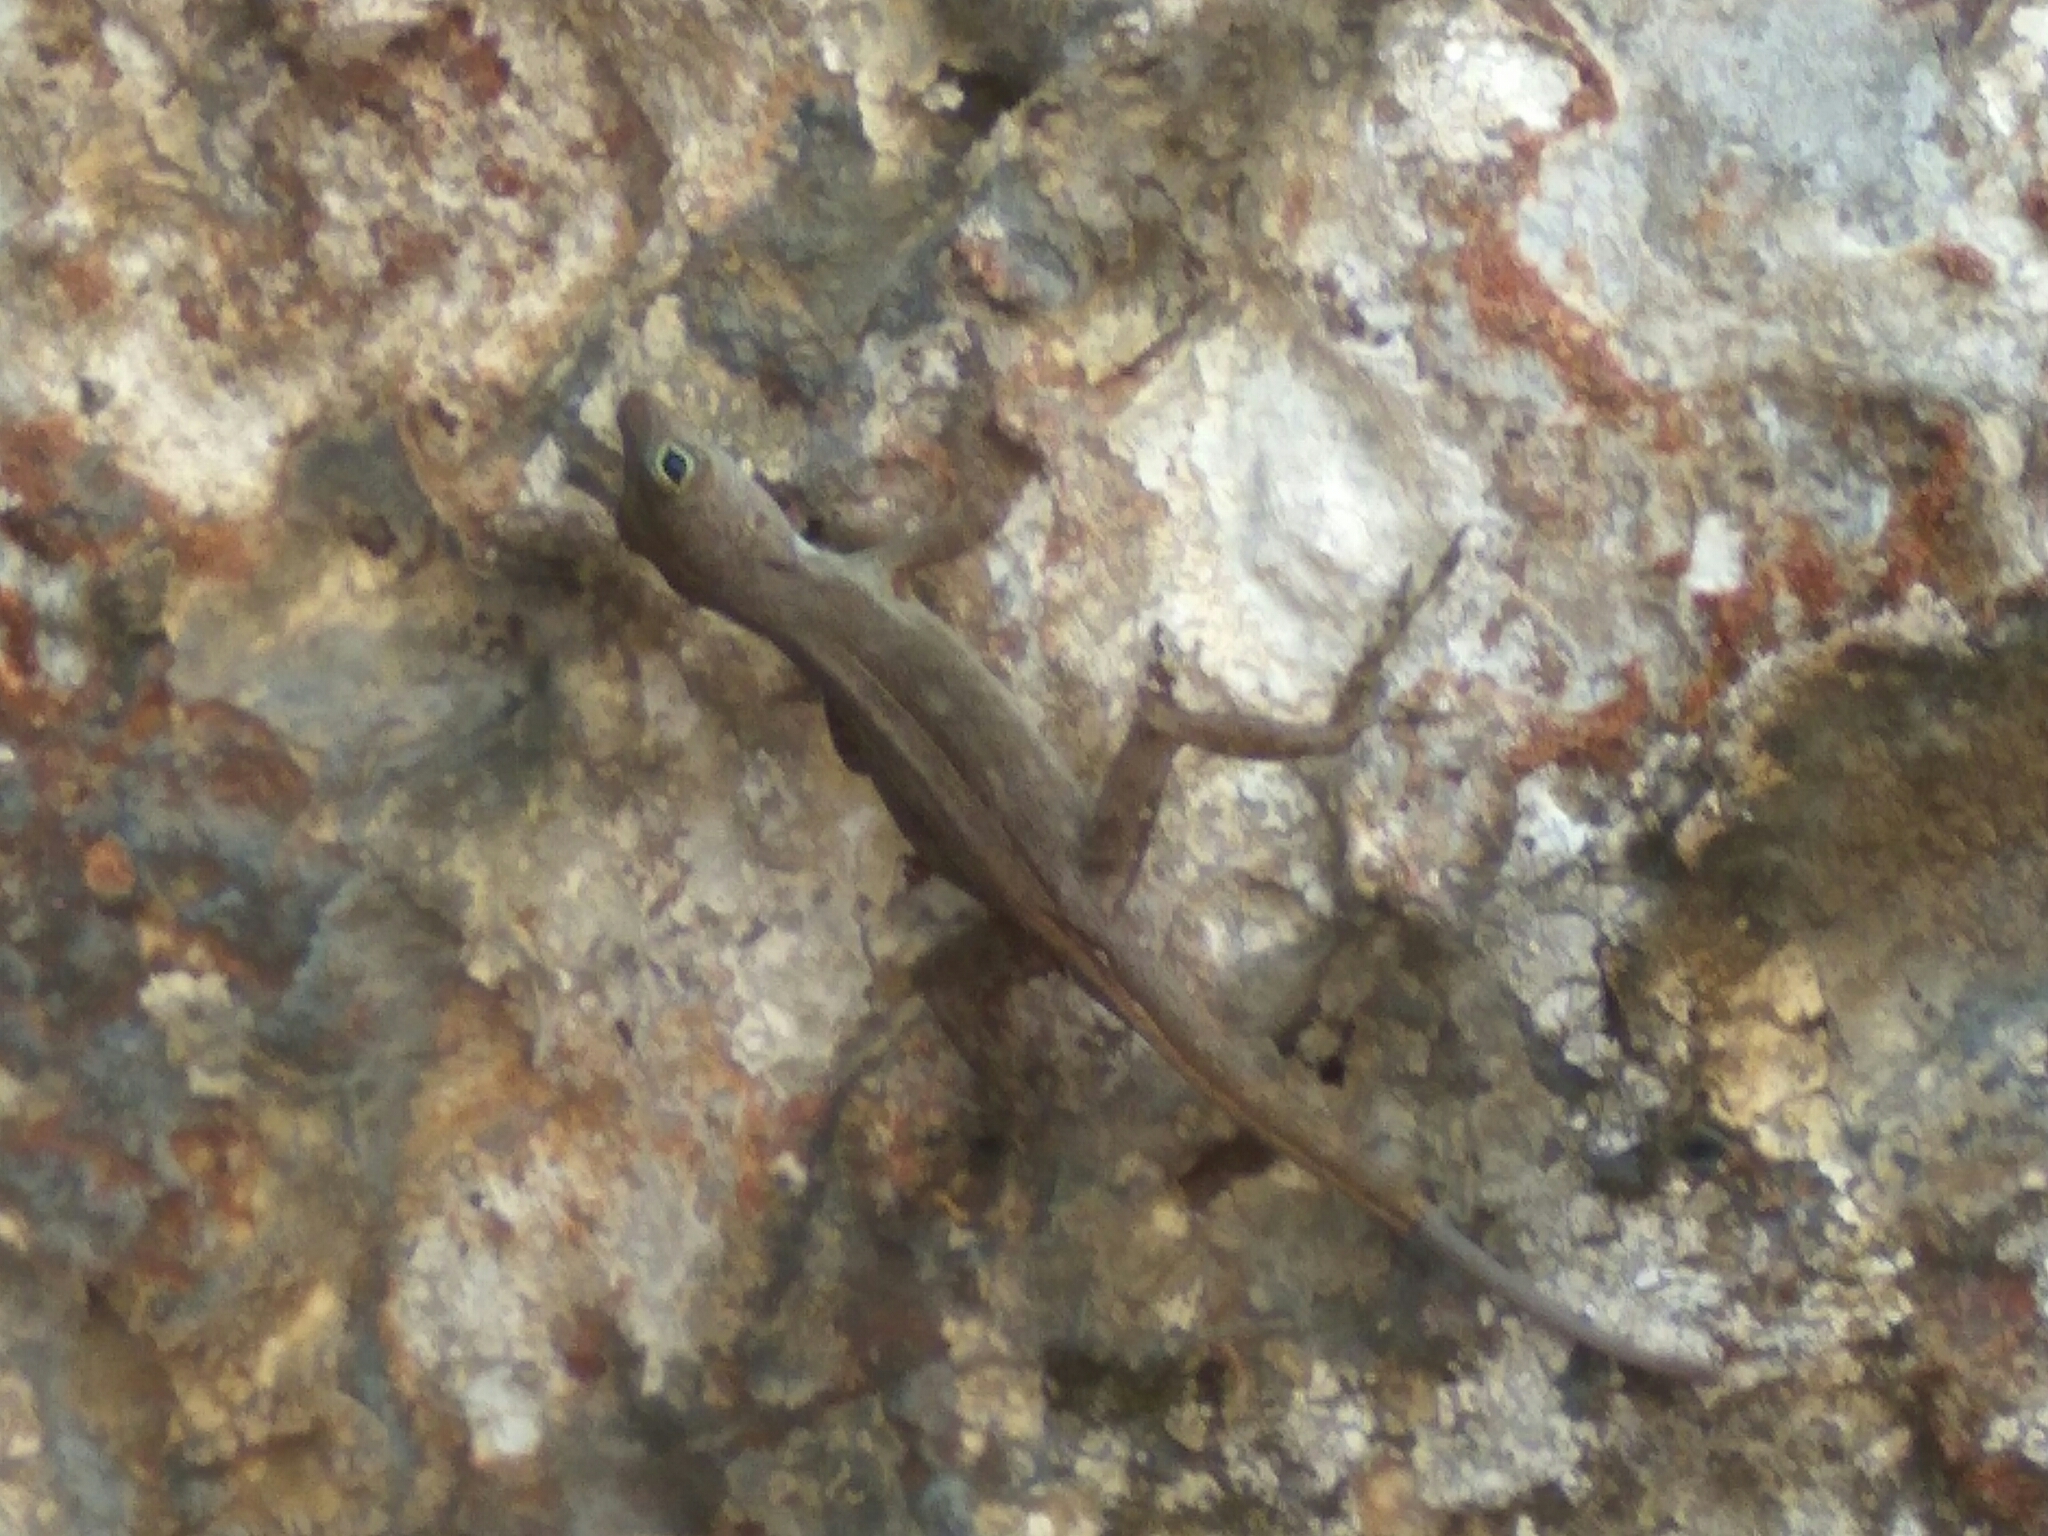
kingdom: Animalia
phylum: Chordata
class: Squamata
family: Dactyloidae
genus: Anolis
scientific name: Anolis cristatellus
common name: Crested anole
